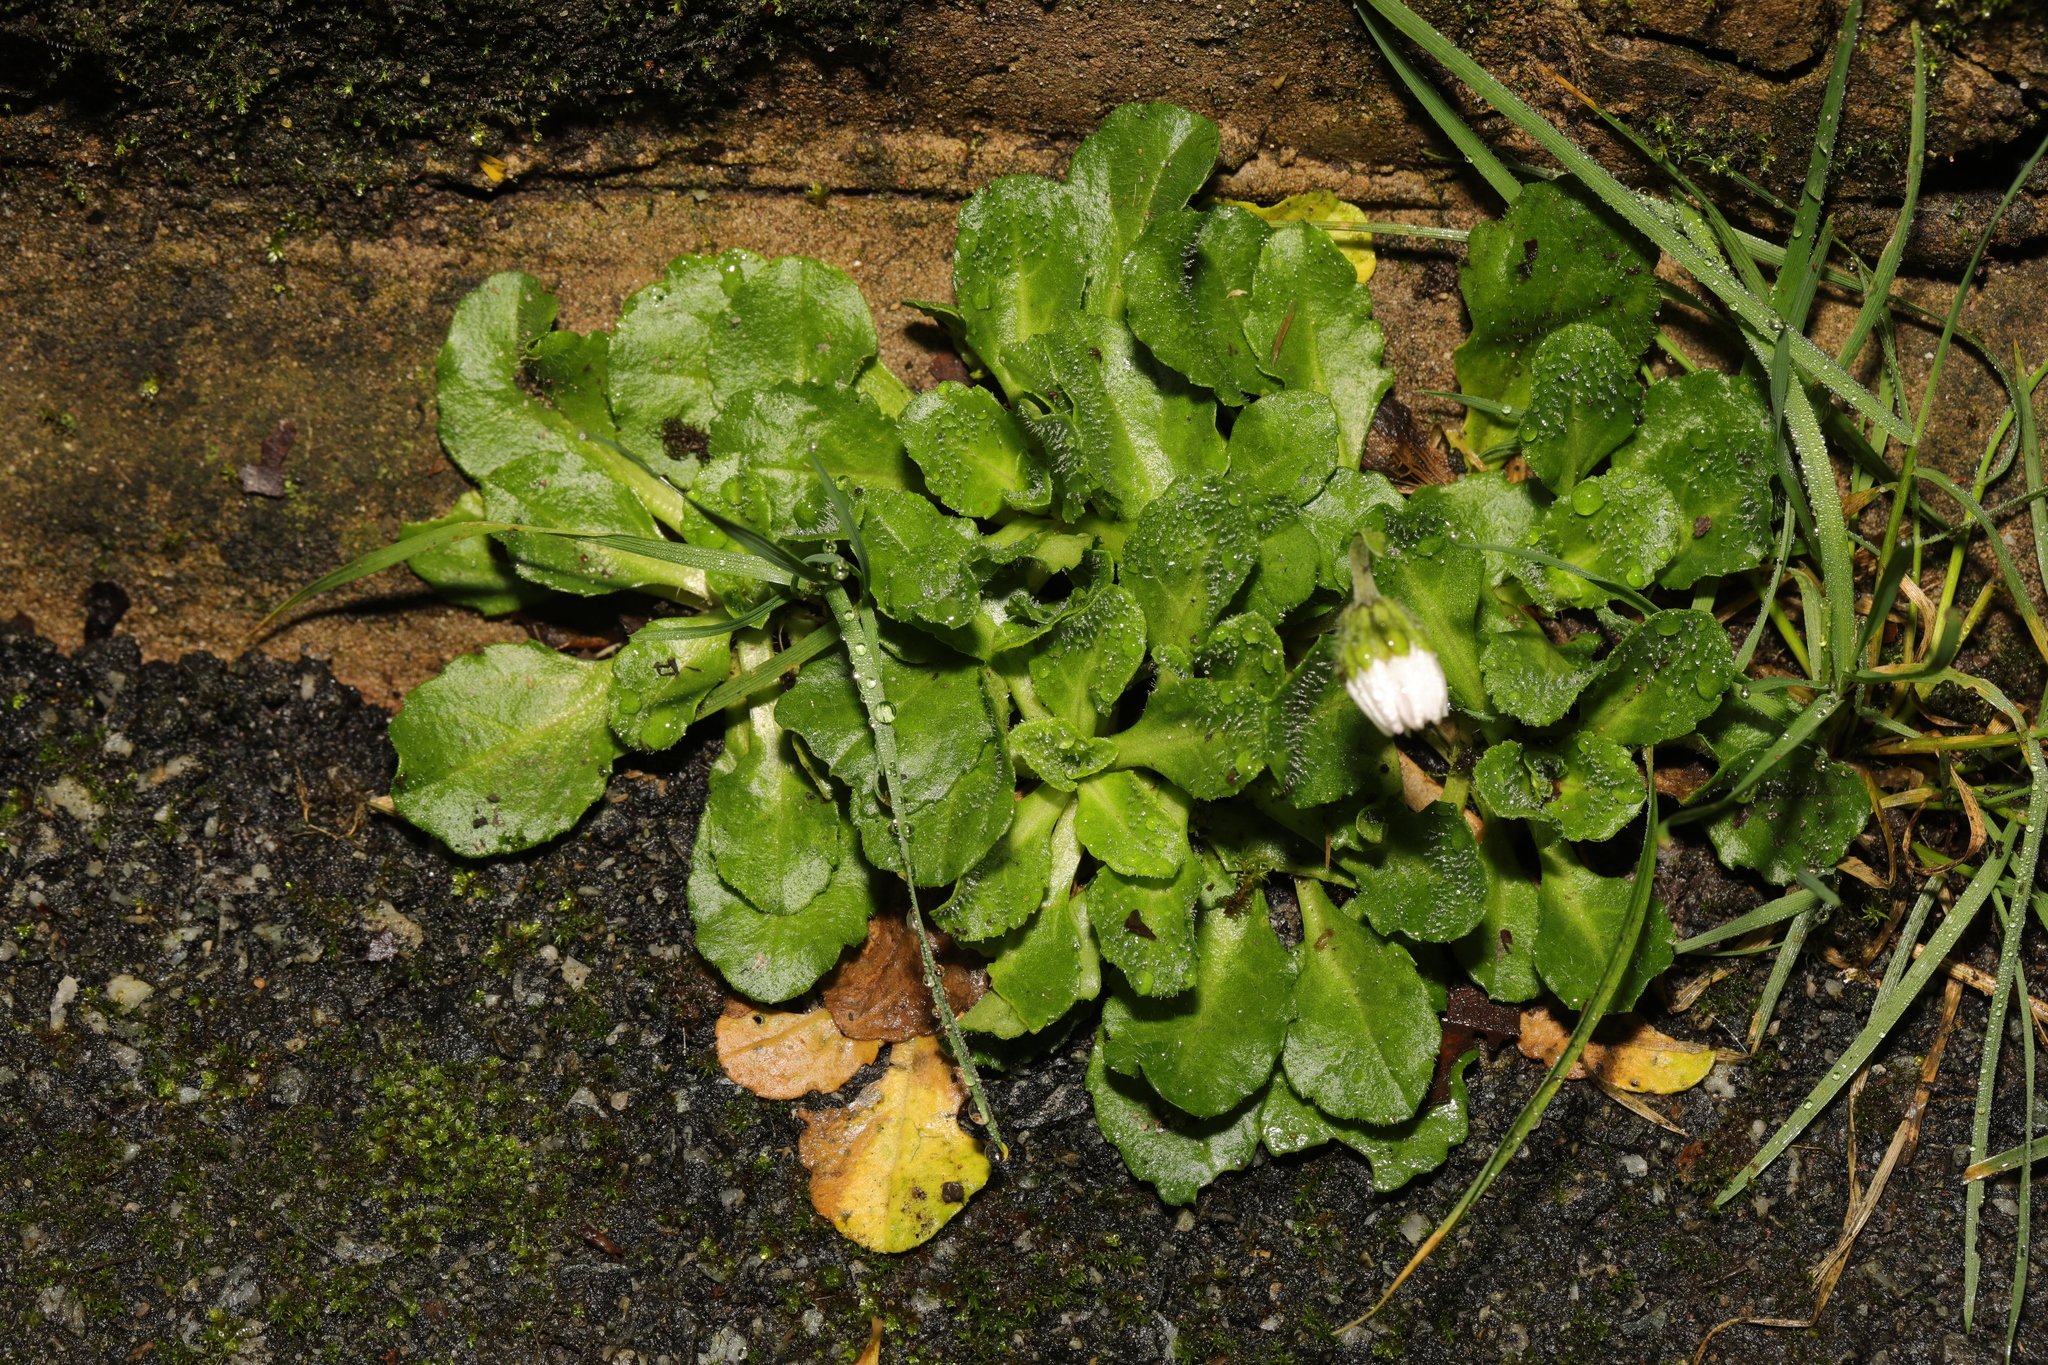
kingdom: Plantae
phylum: Tracheophyta
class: Magnoliopsida
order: Asterales
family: Asteraceae
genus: Bellis
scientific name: Bellis perennis
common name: Lawndaisy
